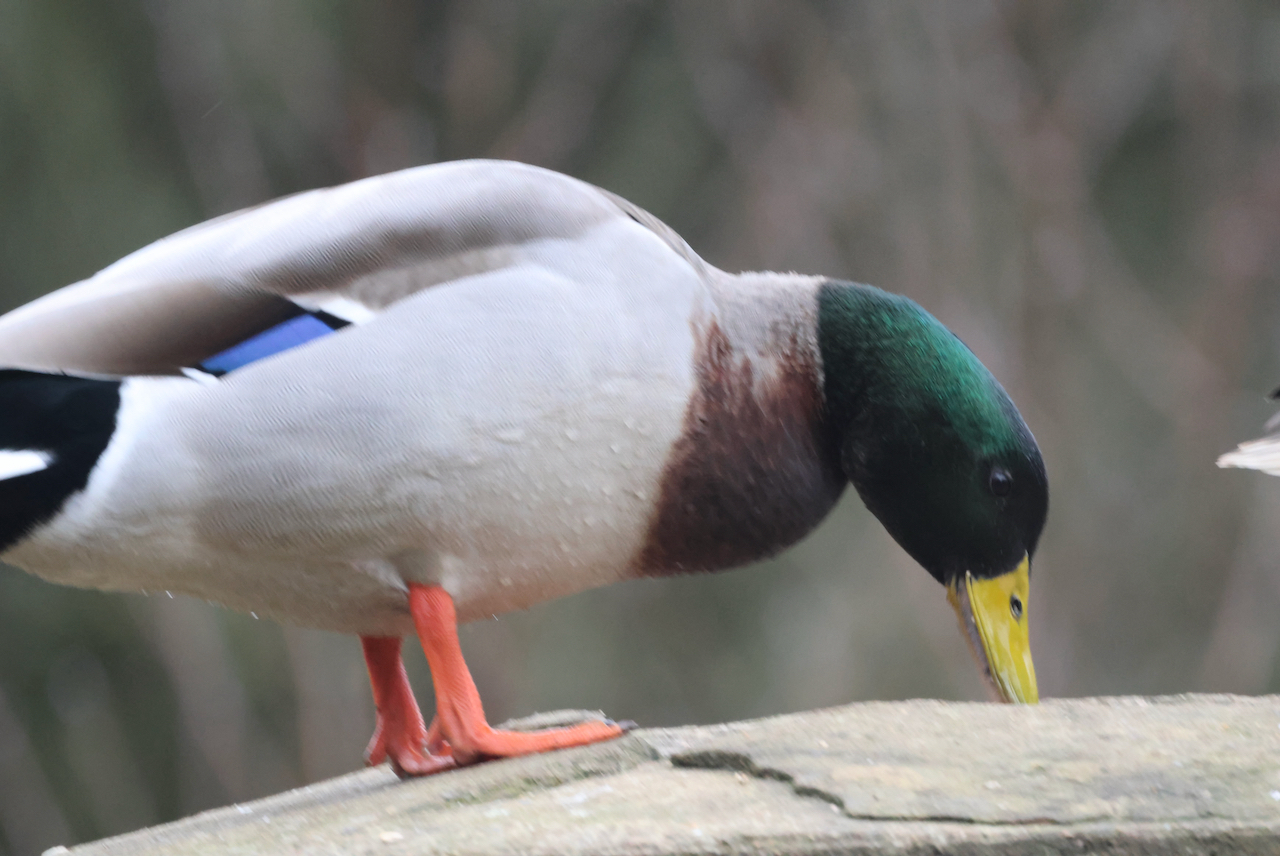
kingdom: Animalia
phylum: Chordata
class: Aves
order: Anseriformes
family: Anatidae
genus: Anas
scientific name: Anas platyrhynchos
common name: Mallard
